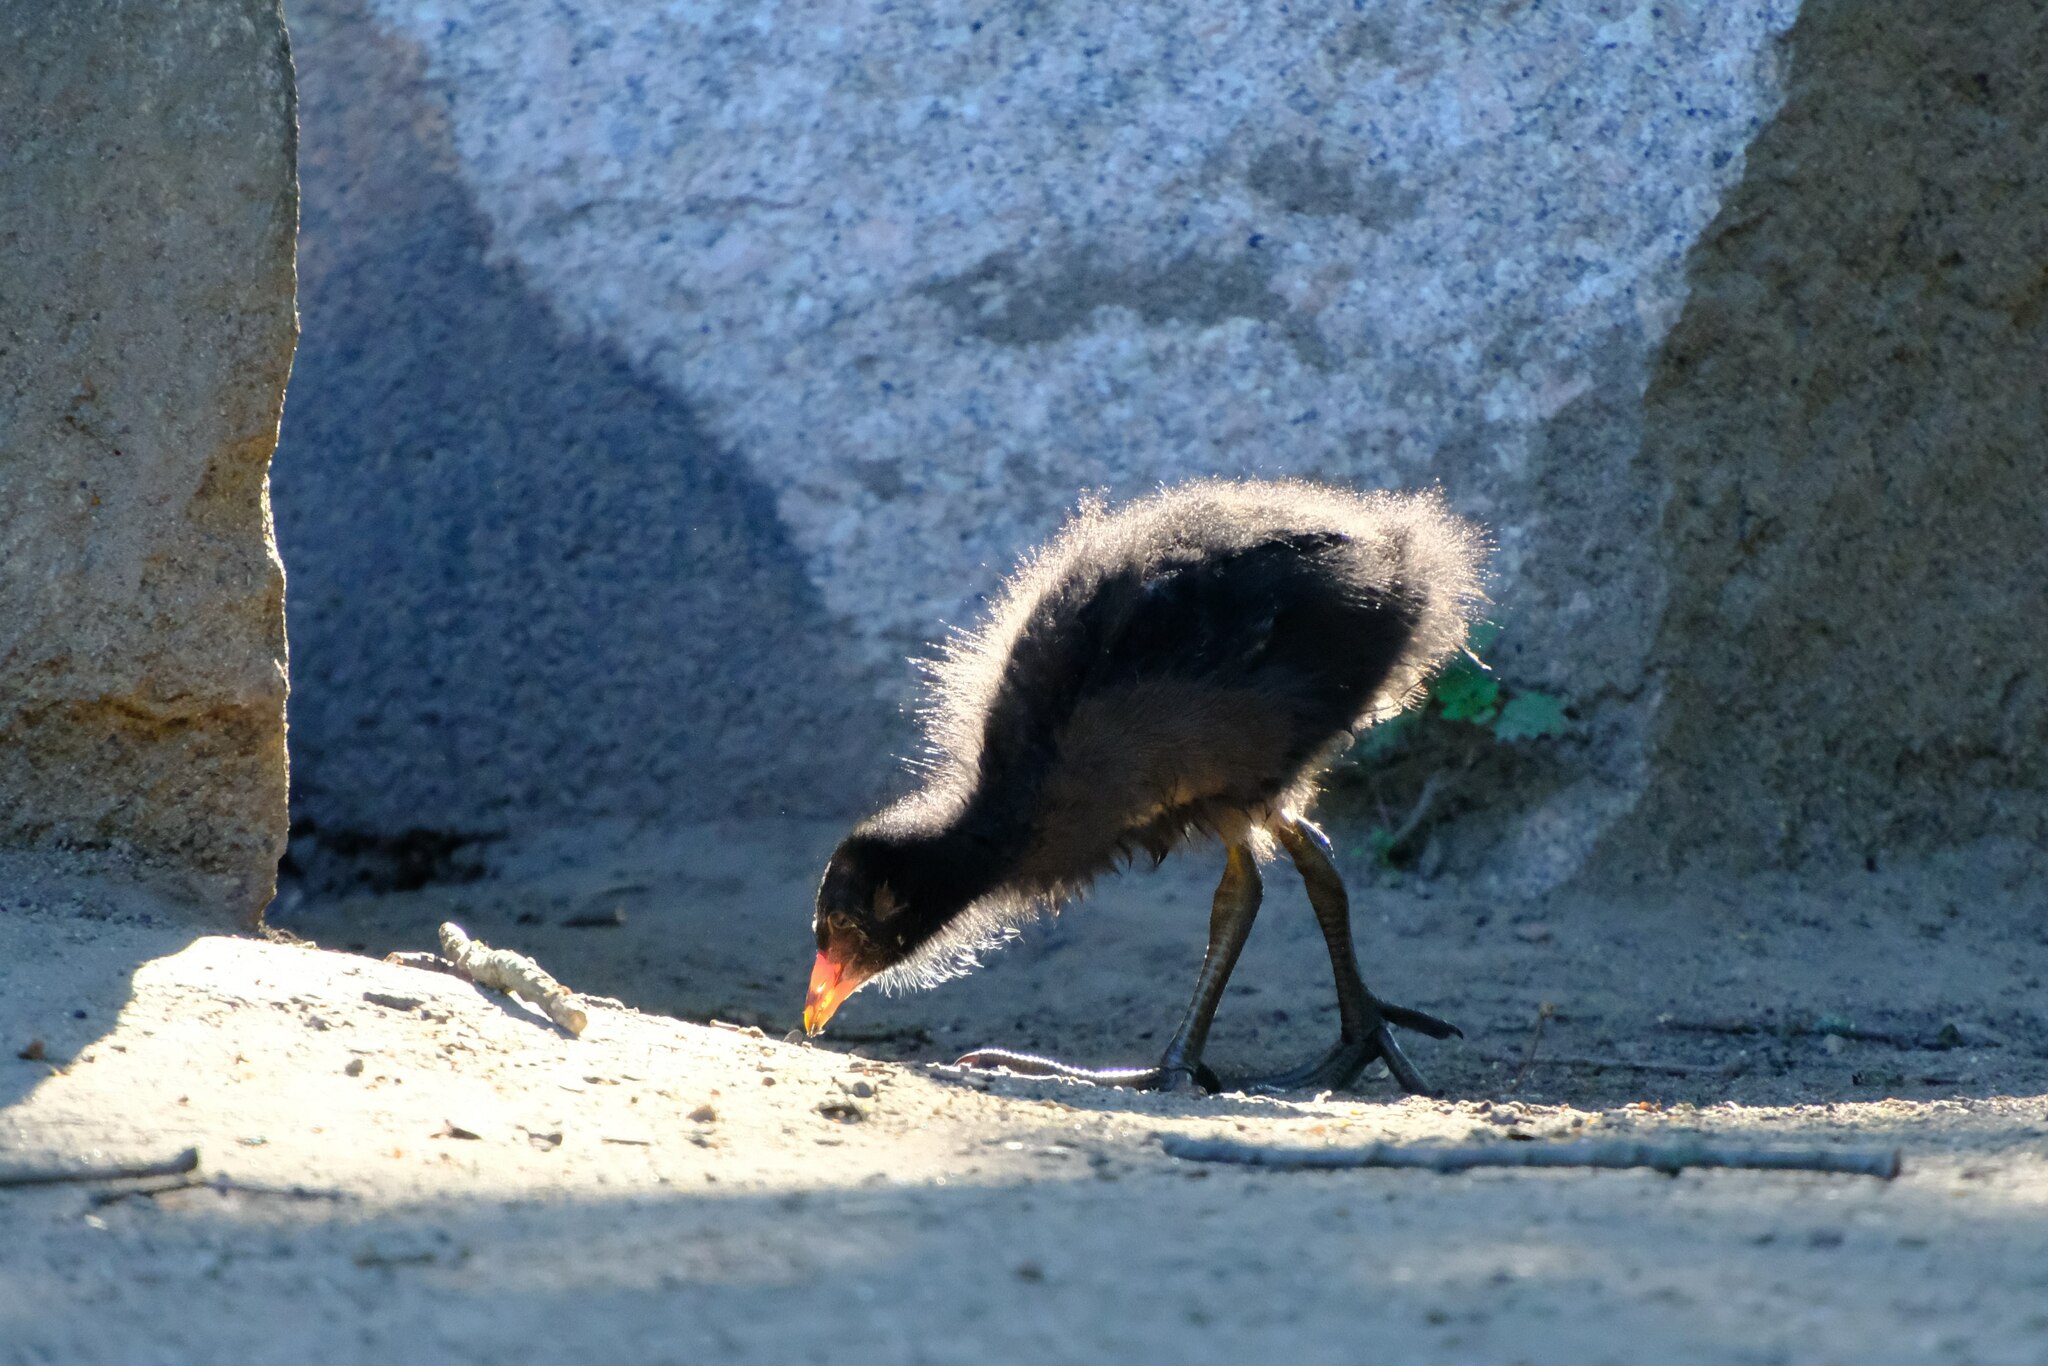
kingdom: Animalia
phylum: Chordata
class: Aves
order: Gruiformes
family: Rallidae
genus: Gallinula
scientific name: Gallinula chloropus
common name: Common moorhen
